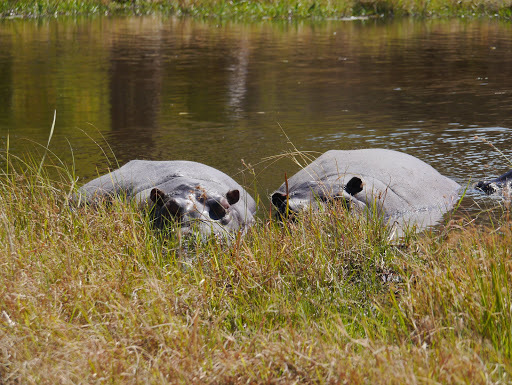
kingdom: Animalia
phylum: Chordata
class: Mammalia
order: Artiodactyla
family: Hippopotamidae
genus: Hippopotamus
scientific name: Hippopotamus amphibius
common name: Common hippopotamus
